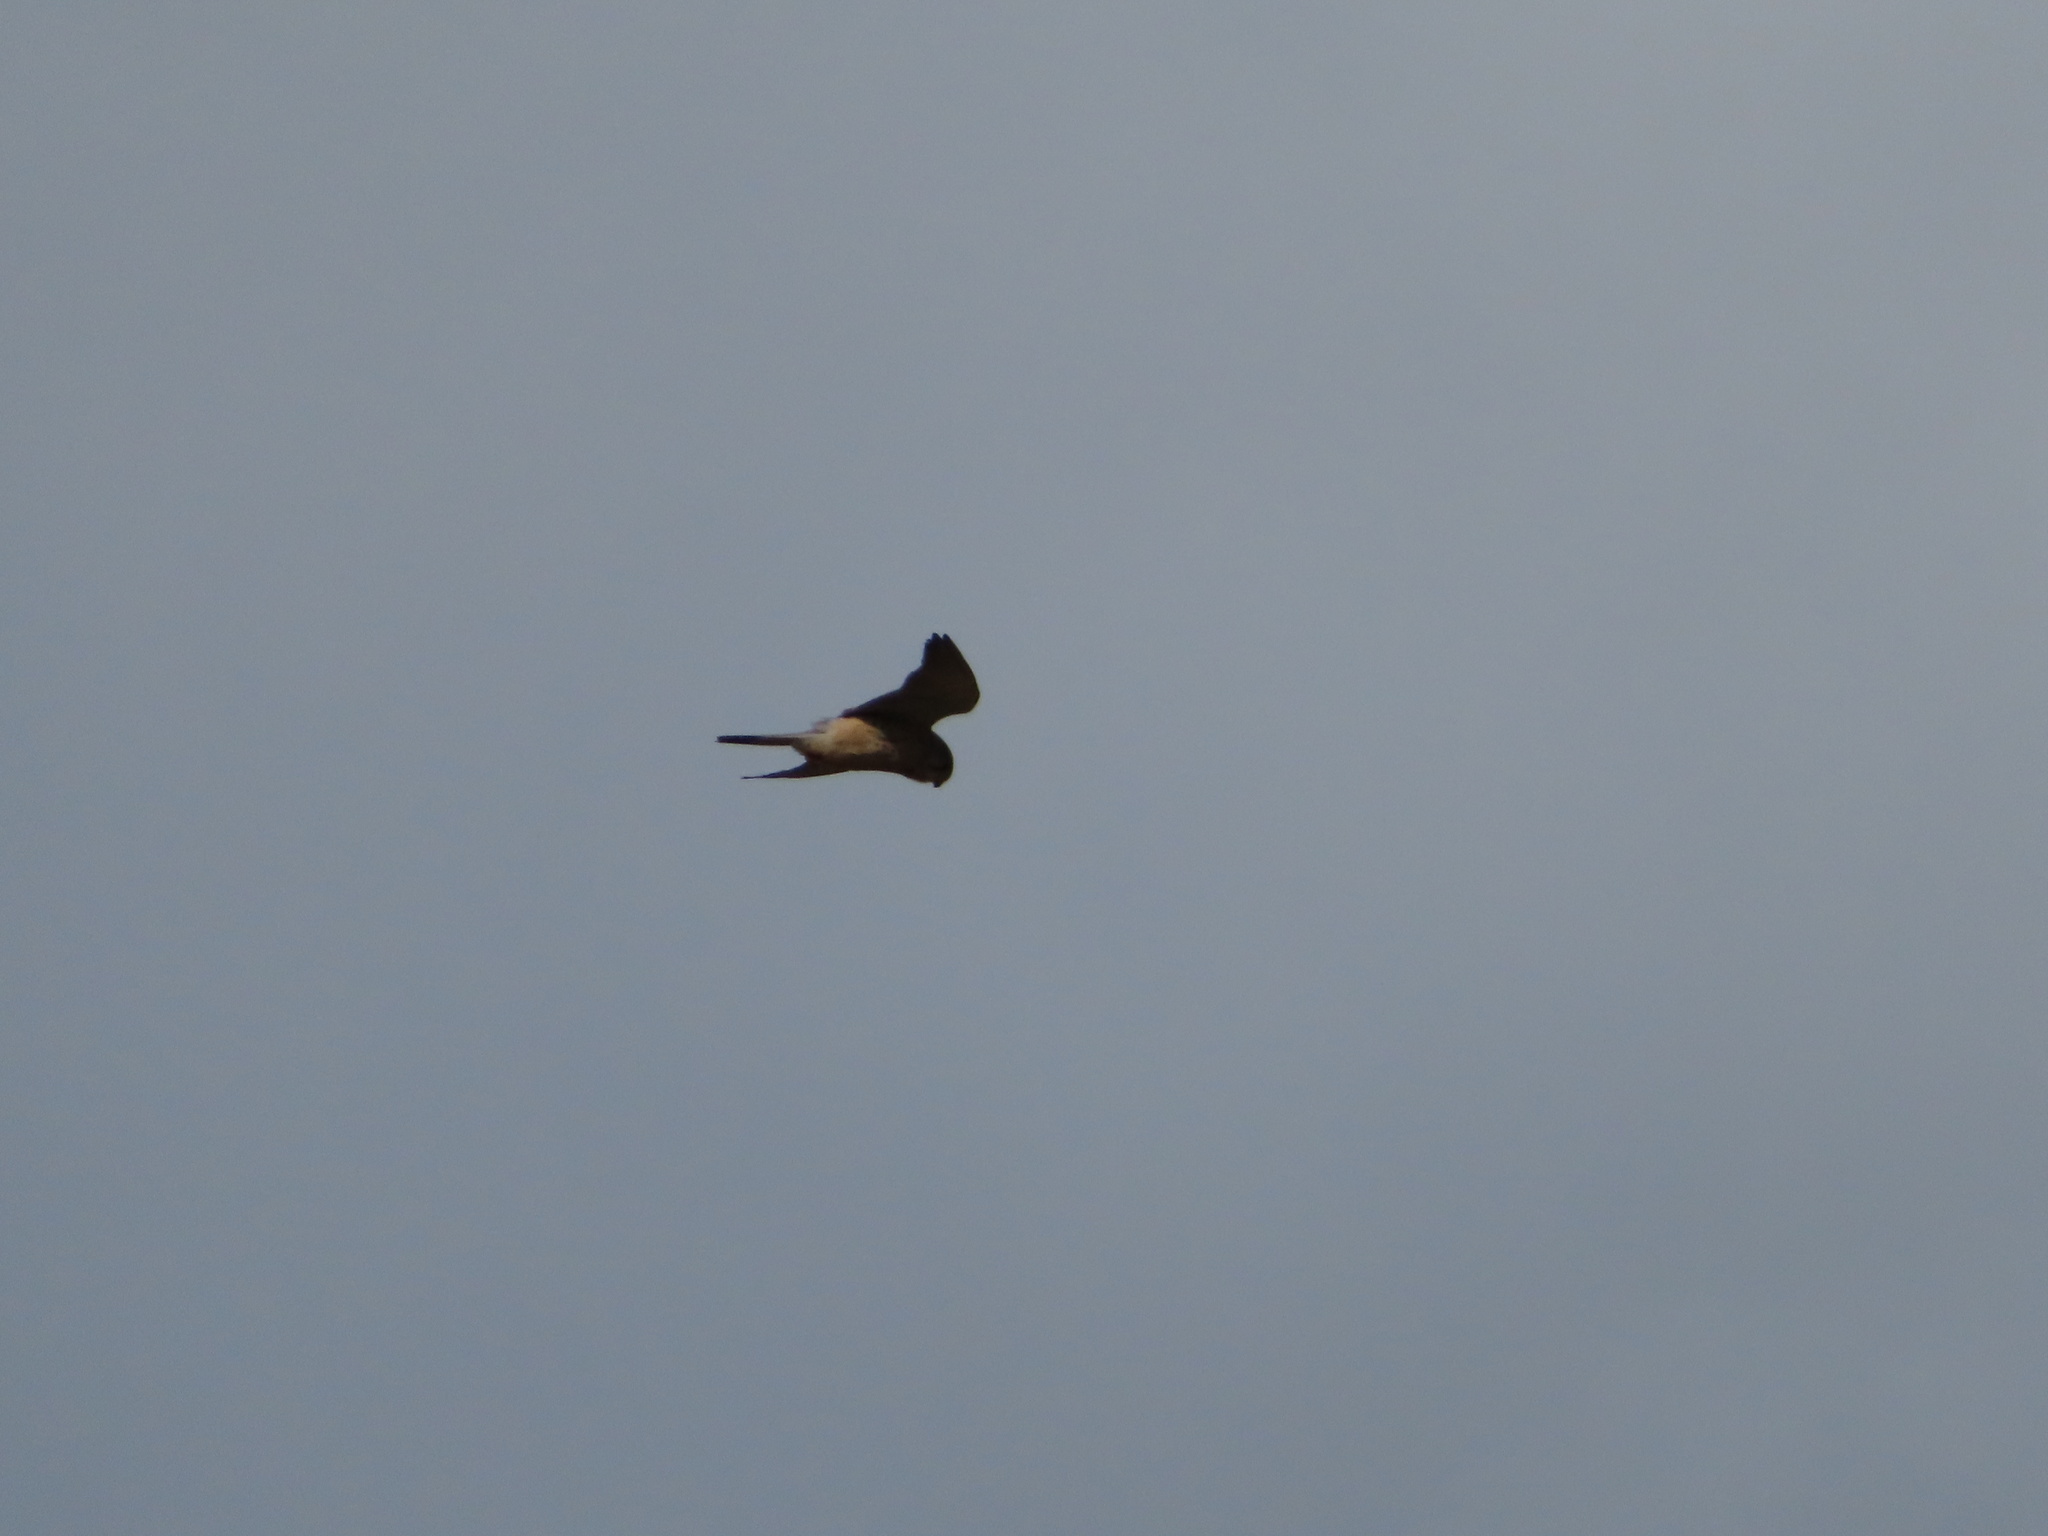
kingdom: Animalia
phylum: Chordata
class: Aves
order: Falconiformes
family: Falconidae
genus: Falco
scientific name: Falco tinnunculus
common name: Common kestrel
